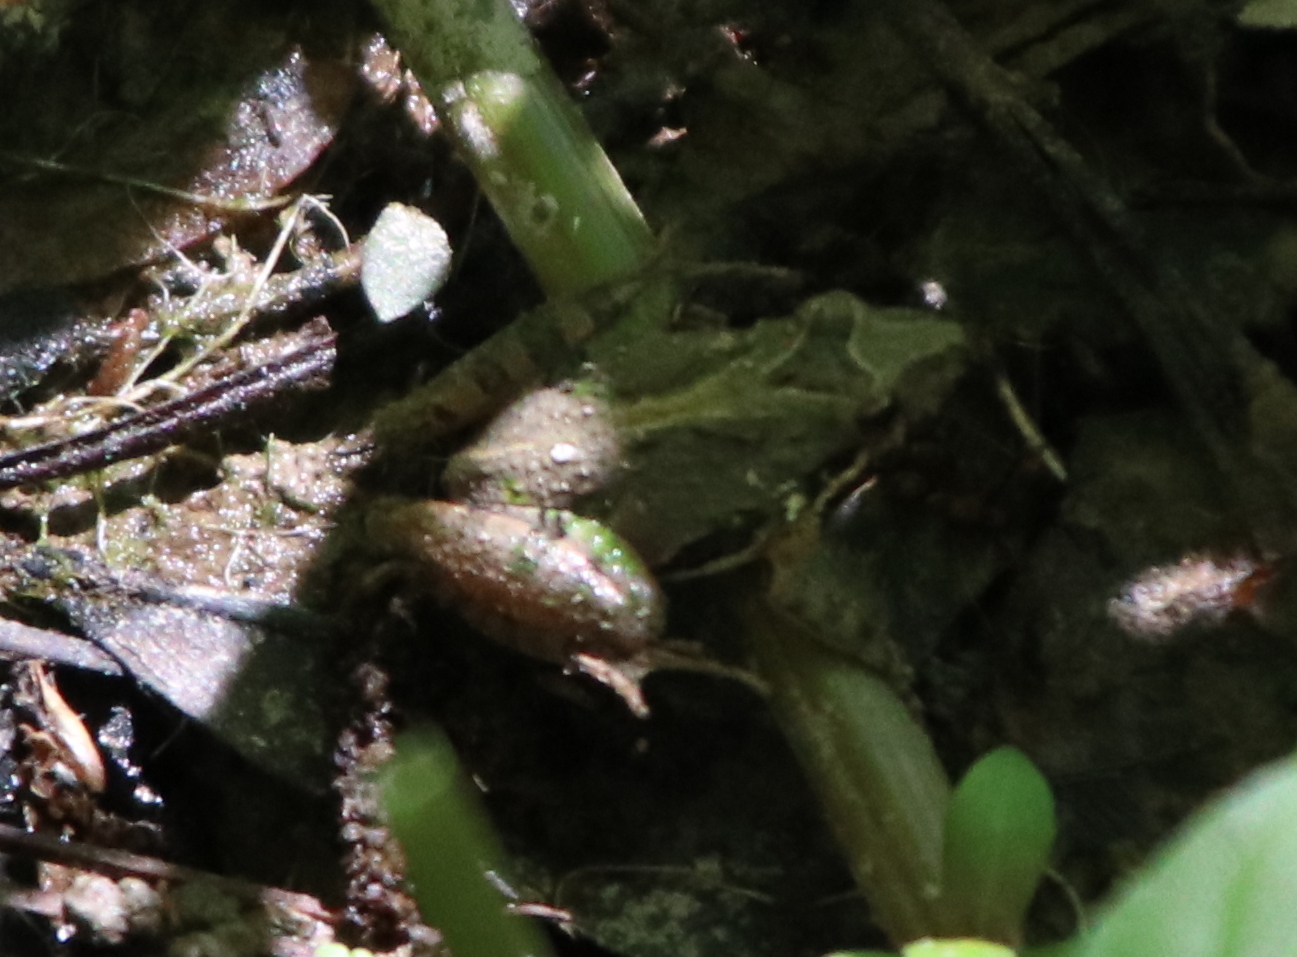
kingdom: Animalia
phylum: Chordata
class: Amphibia
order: Anura
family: Hylidae
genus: Acris
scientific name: Acris gryllus
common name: Southern cricket frog
